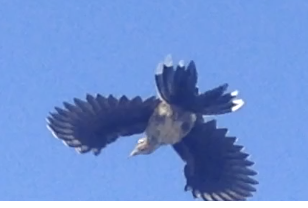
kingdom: Animalia
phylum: Chordata
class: Aves
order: Cuculiformes
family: Cuculidae
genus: Geococcyx
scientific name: Geococcyx californianus
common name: Greater roadrunner
